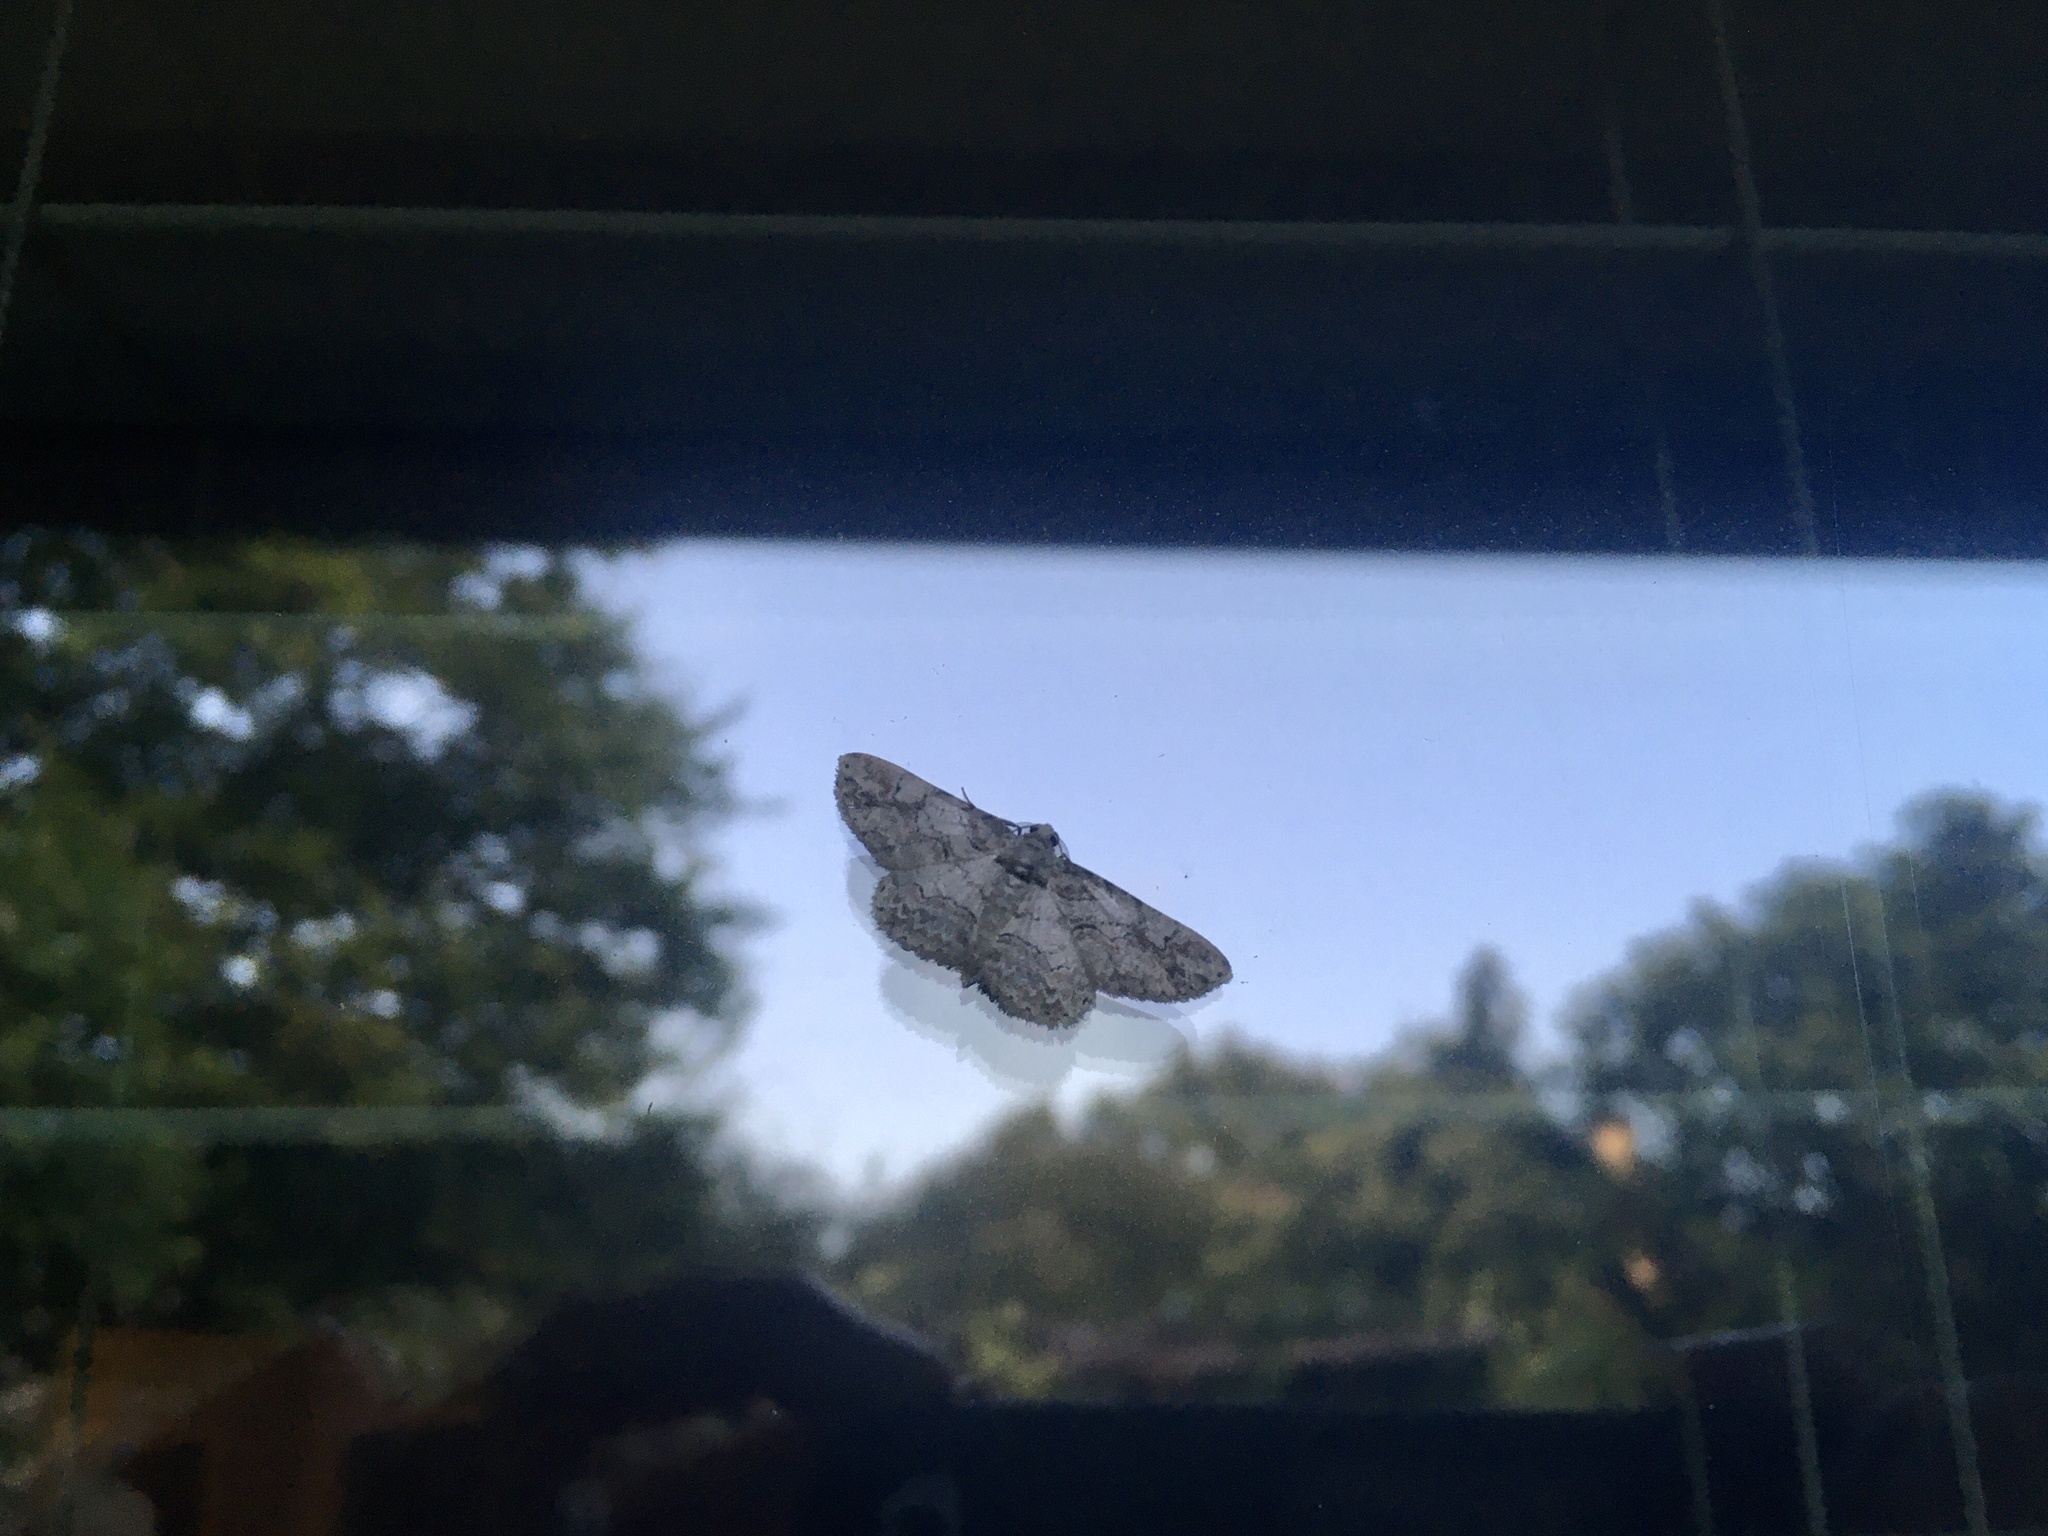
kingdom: Animalia
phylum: Arthropoda
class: Insecta
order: Lepidoptera
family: Geometridae
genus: Iridopsis
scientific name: Iridopsis defectaria
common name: Brown-shaded gray
